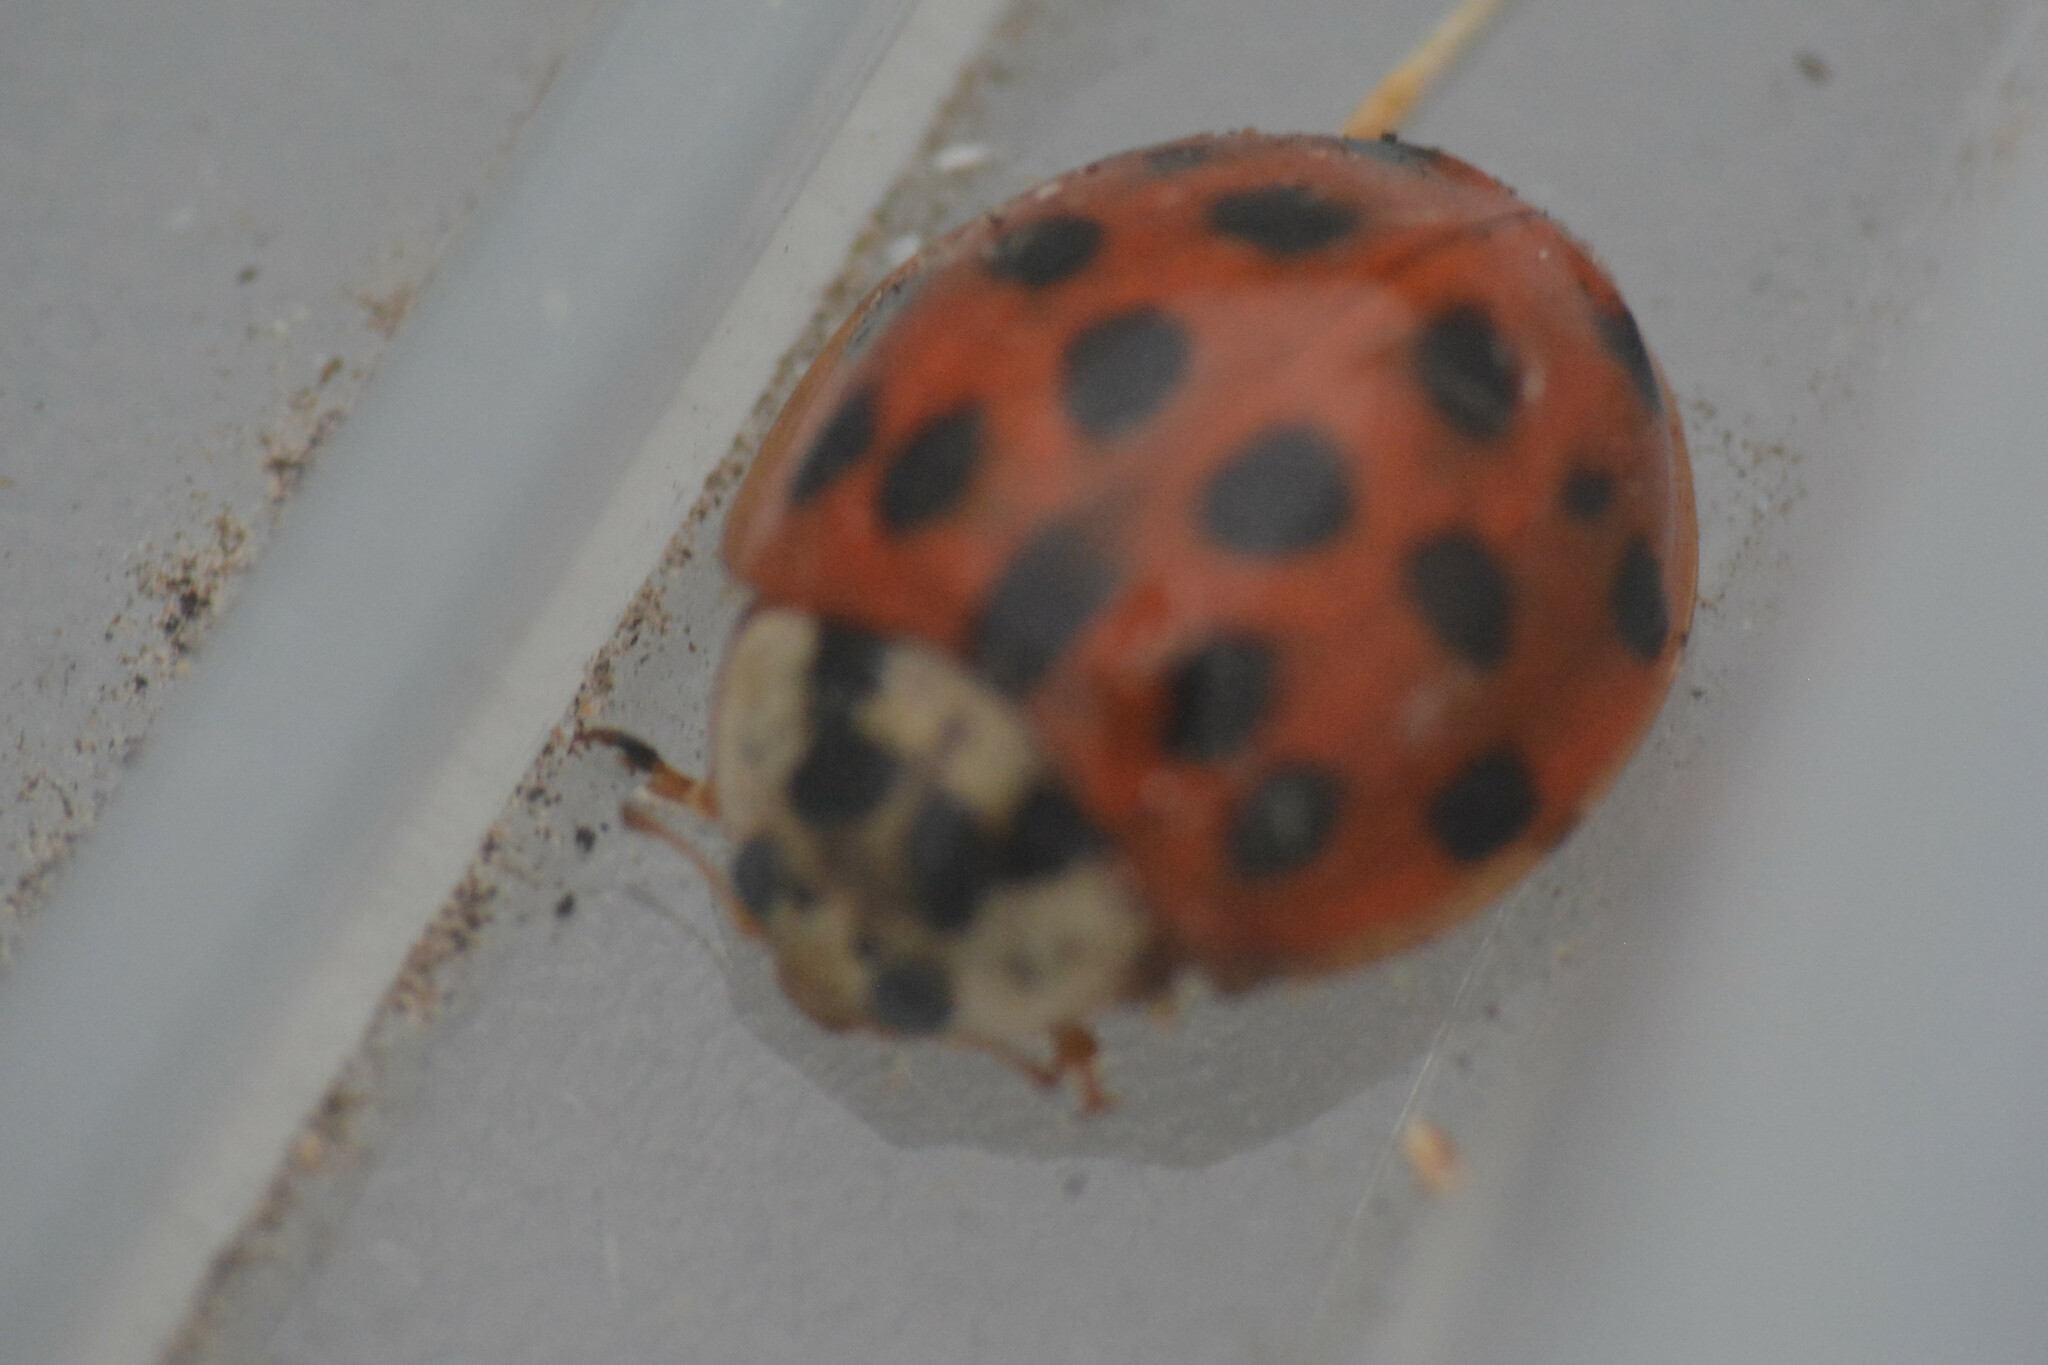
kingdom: Animalia
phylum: Arthropoda
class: Insecta
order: Coleoptera
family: Coccinellidae
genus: Harmonia
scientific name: Harmonia axyridis
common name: Harlequin ladybird
